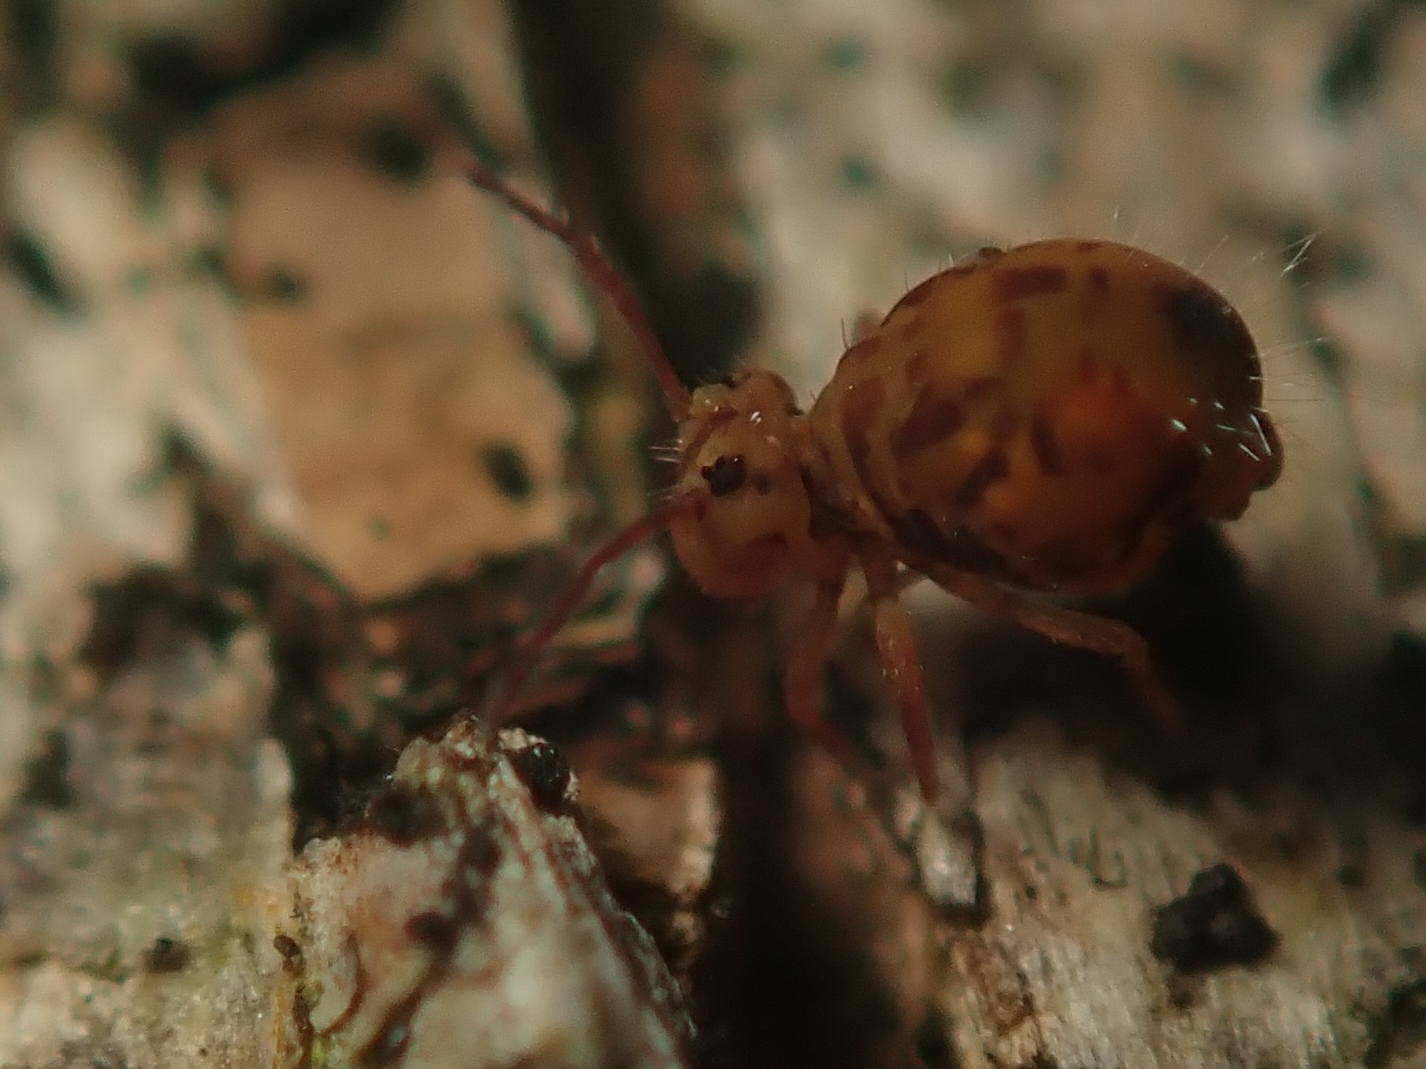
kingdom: Animalia
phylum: Arthropoda
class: Collembola
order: Symphypleona
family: Dicyrtomidae
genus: Dicyrtomina
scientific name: Dicyrtomina ornata
